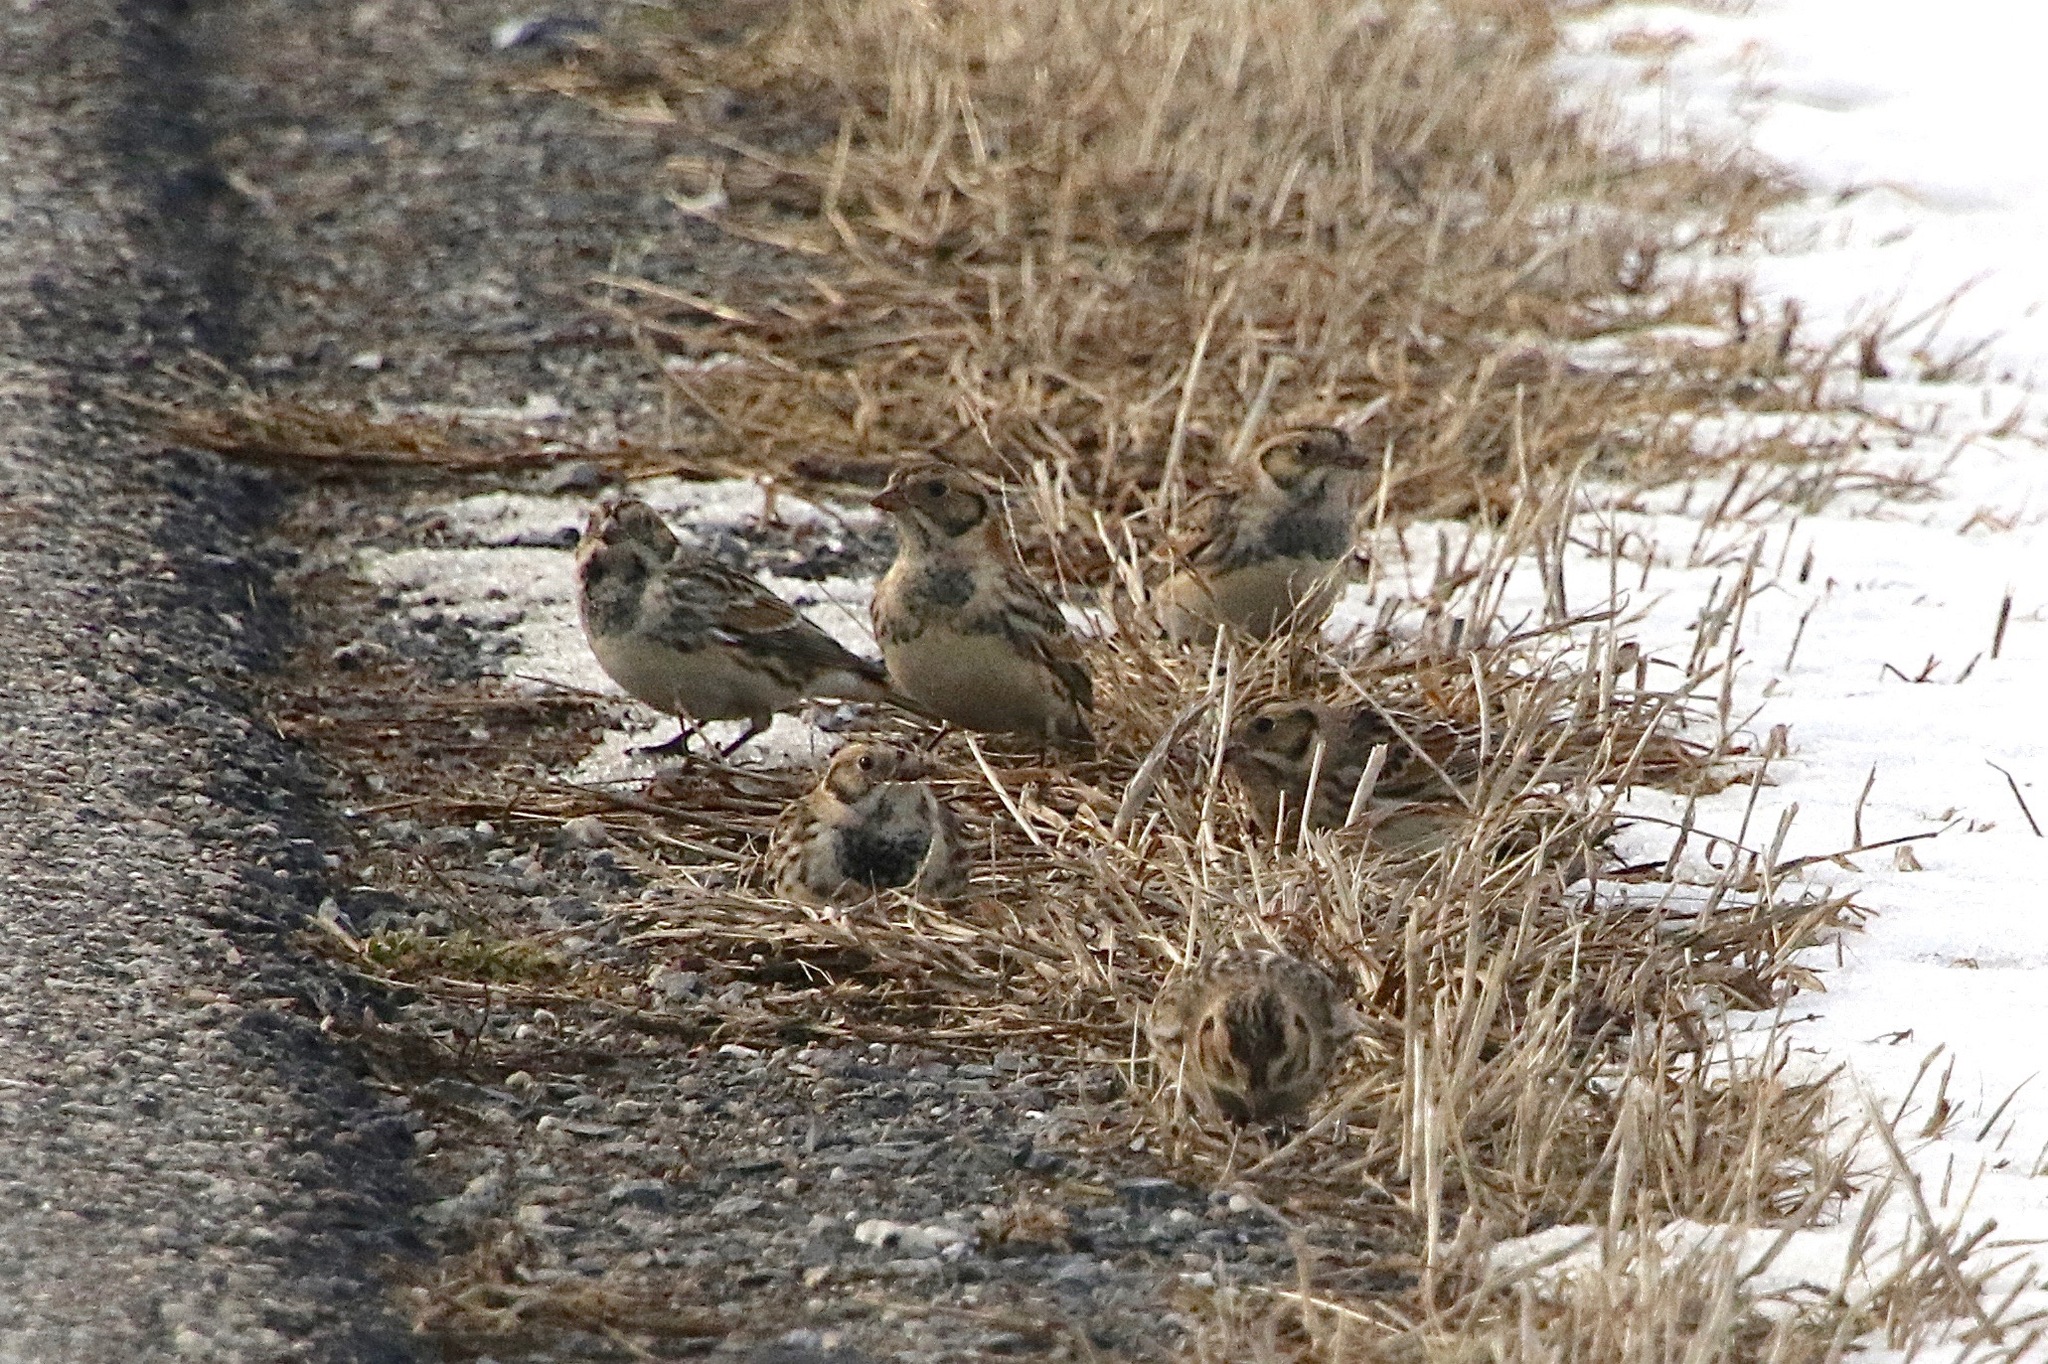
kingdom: Animalia
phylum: Chordata
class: Aves
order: Passeriformes
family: Calcariidae
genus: Calcarius
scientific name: Calcarius lapponicus
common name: Lapland longspur
